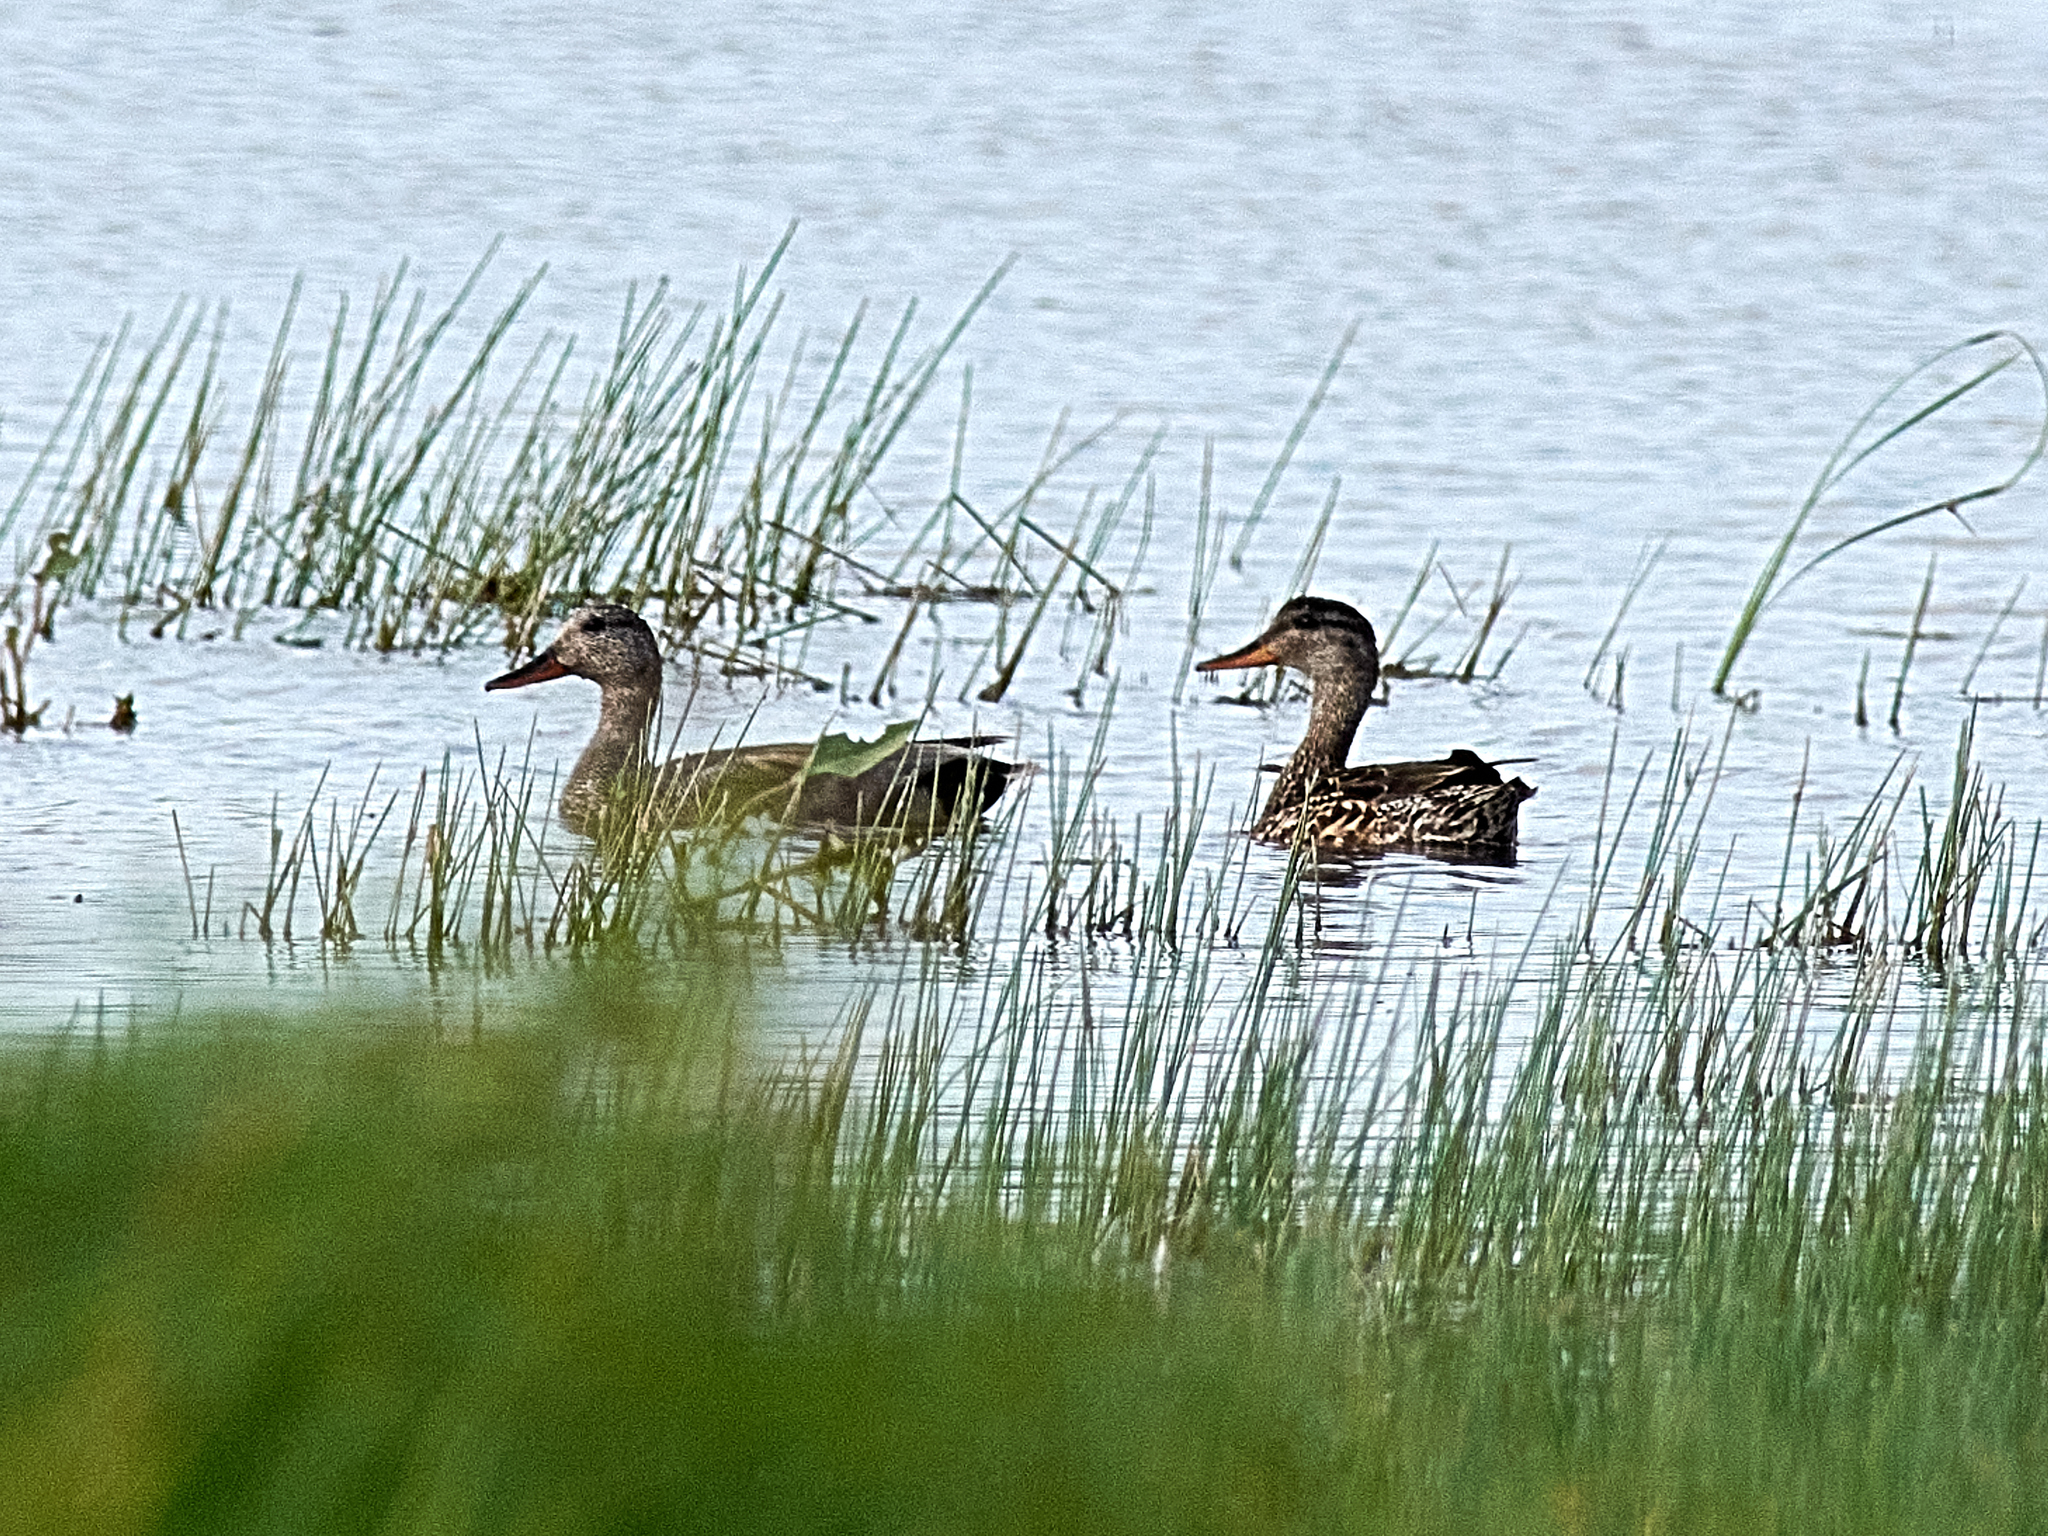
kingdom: Animalia
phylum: Chordata
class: Aves
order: Anseriformes
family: Anatidae
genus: Mareca
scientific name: Mareca strepera
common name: Gadwall
